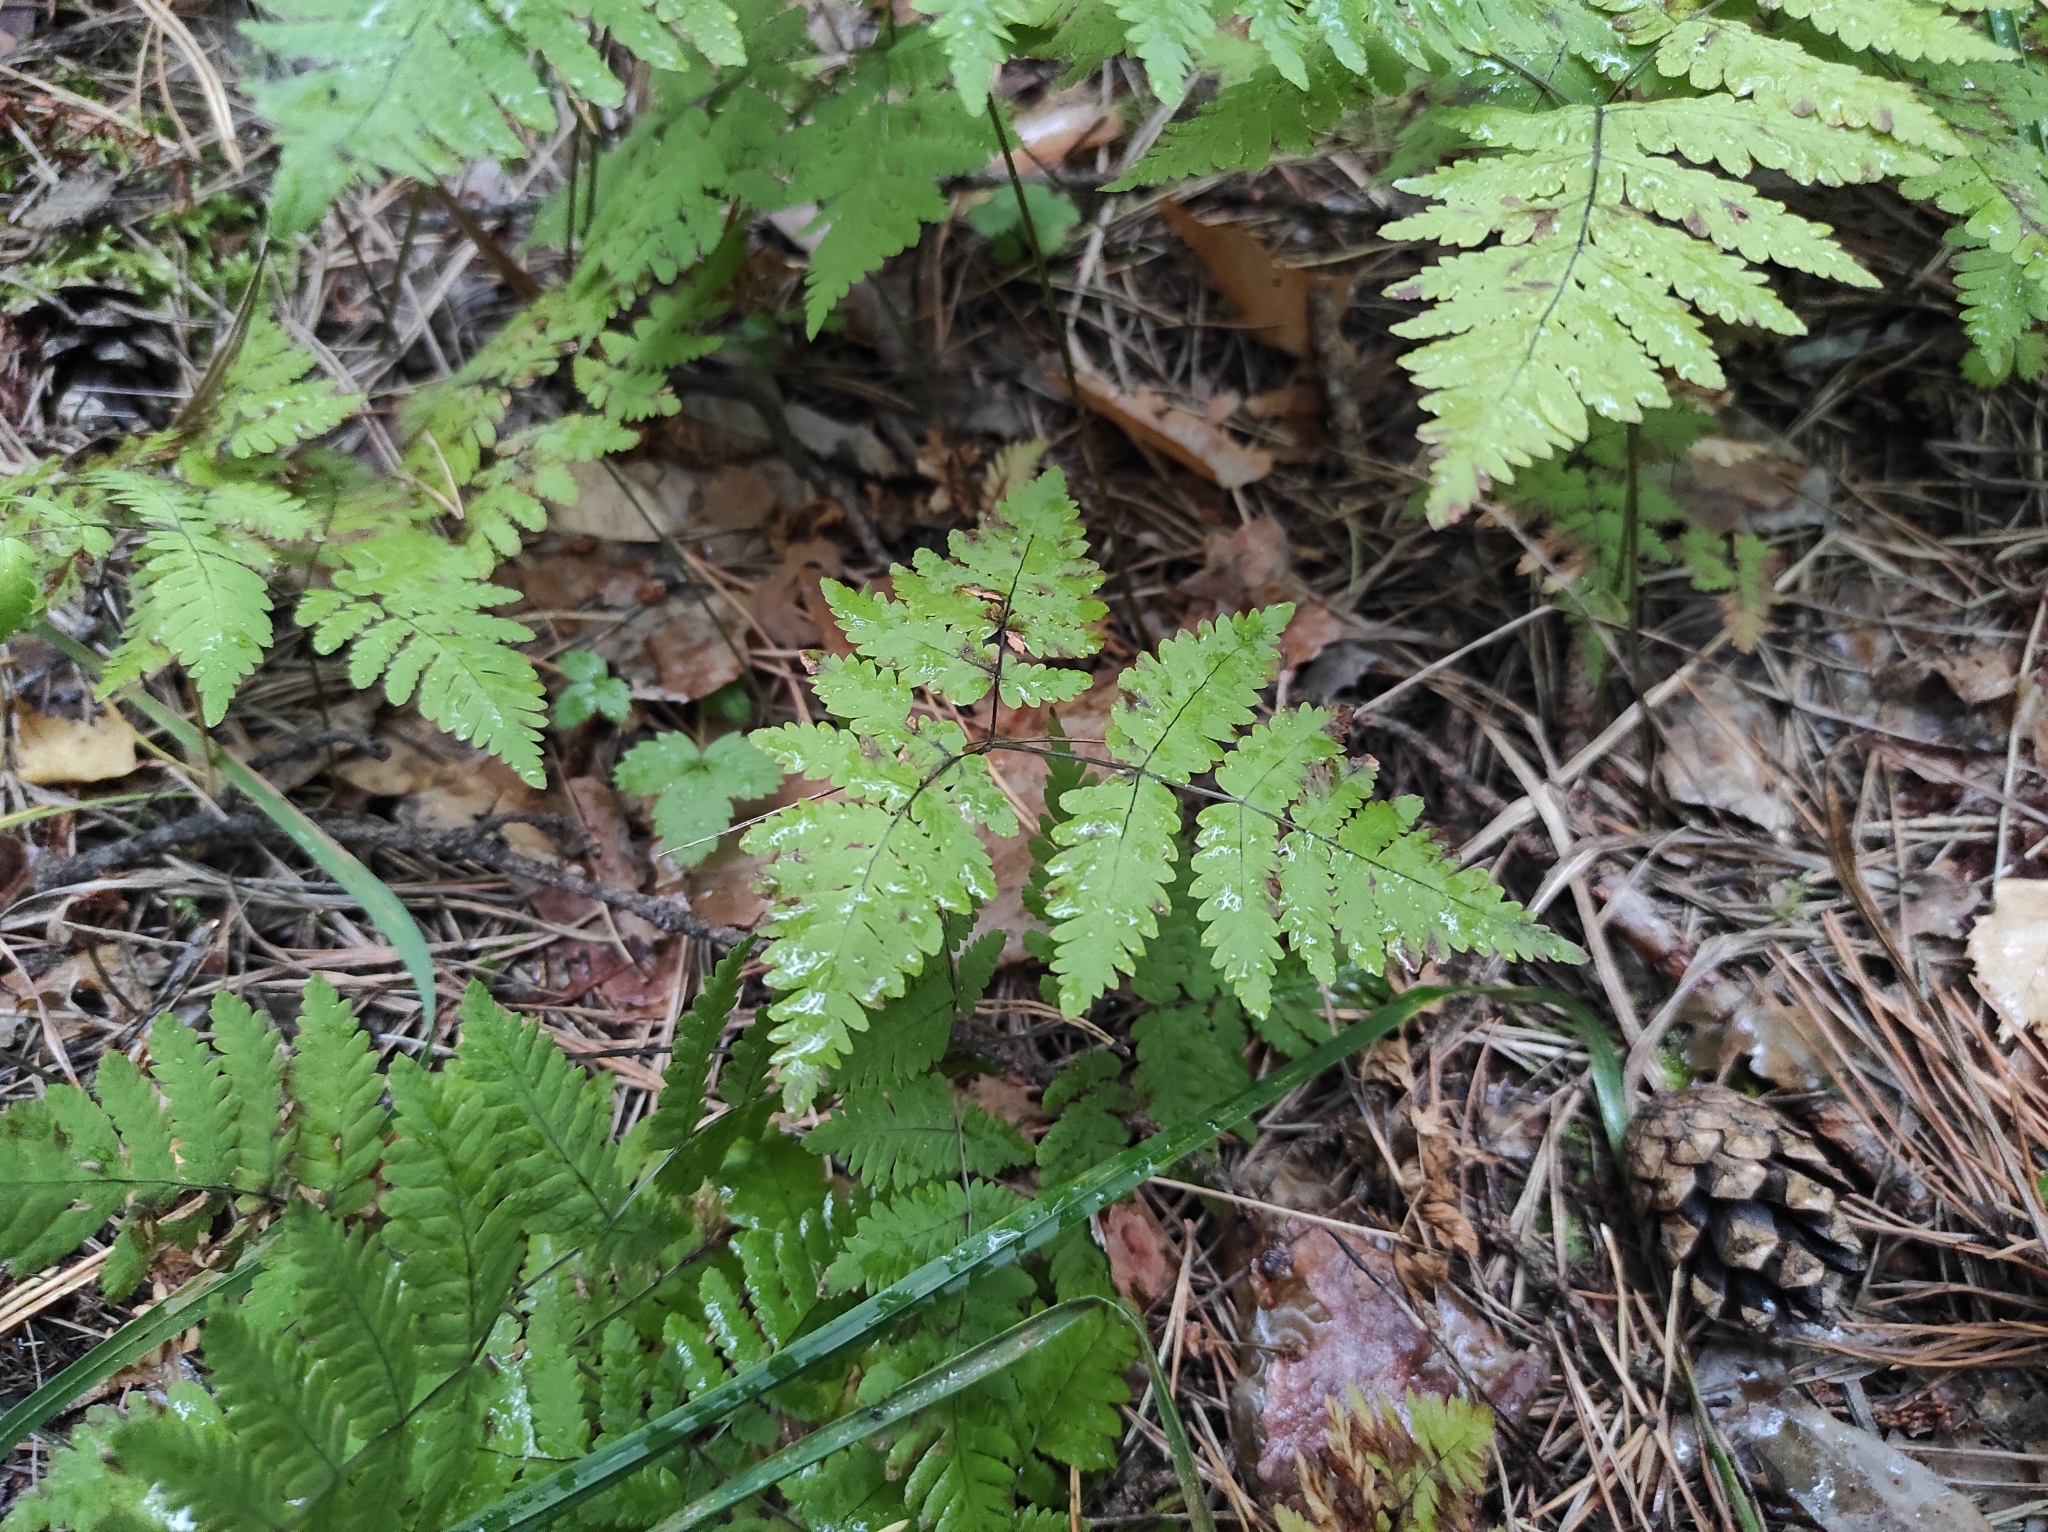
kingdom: Plantae
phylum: Tracheophyta
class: Polypodiopsida
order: Polypodiales
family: Cystopteridaceae
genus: Gymnocarpium
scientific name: Gymnocarpium dryopteris
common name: Oak fern
